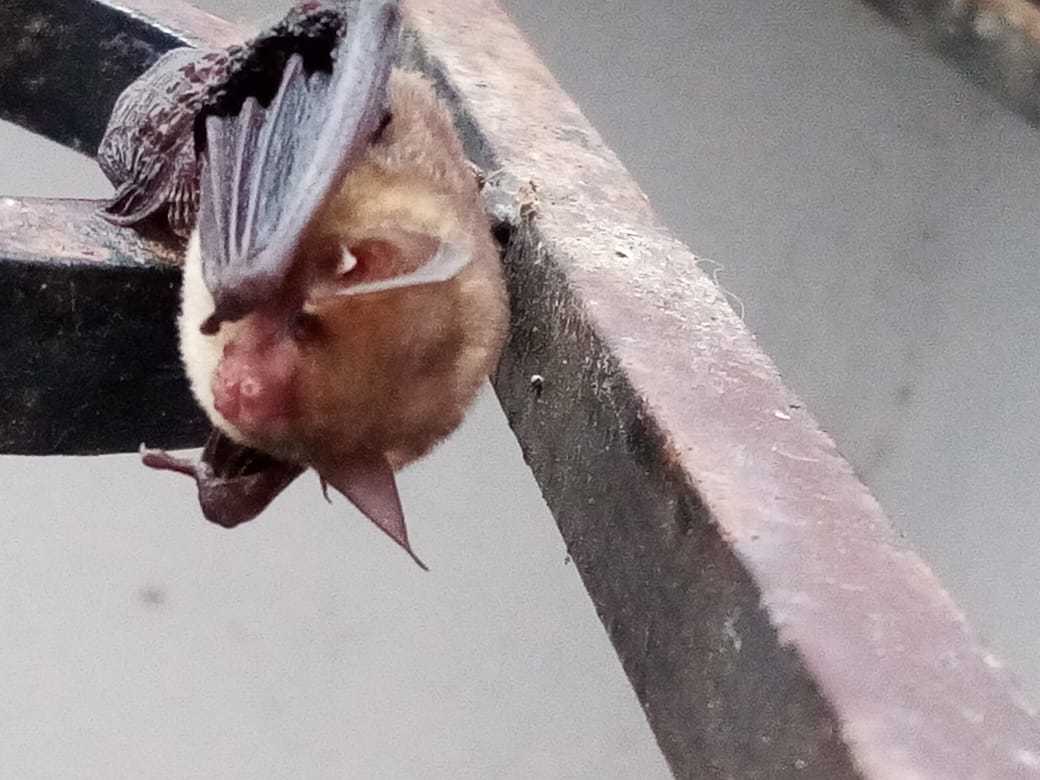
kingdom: Animalia
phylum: Chordata
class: Mammalia
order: Chiroptera
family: Vespertilionidae
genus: Rhogeessa
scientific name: Rhogeessa aenea
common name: Yucatan yellow bat
